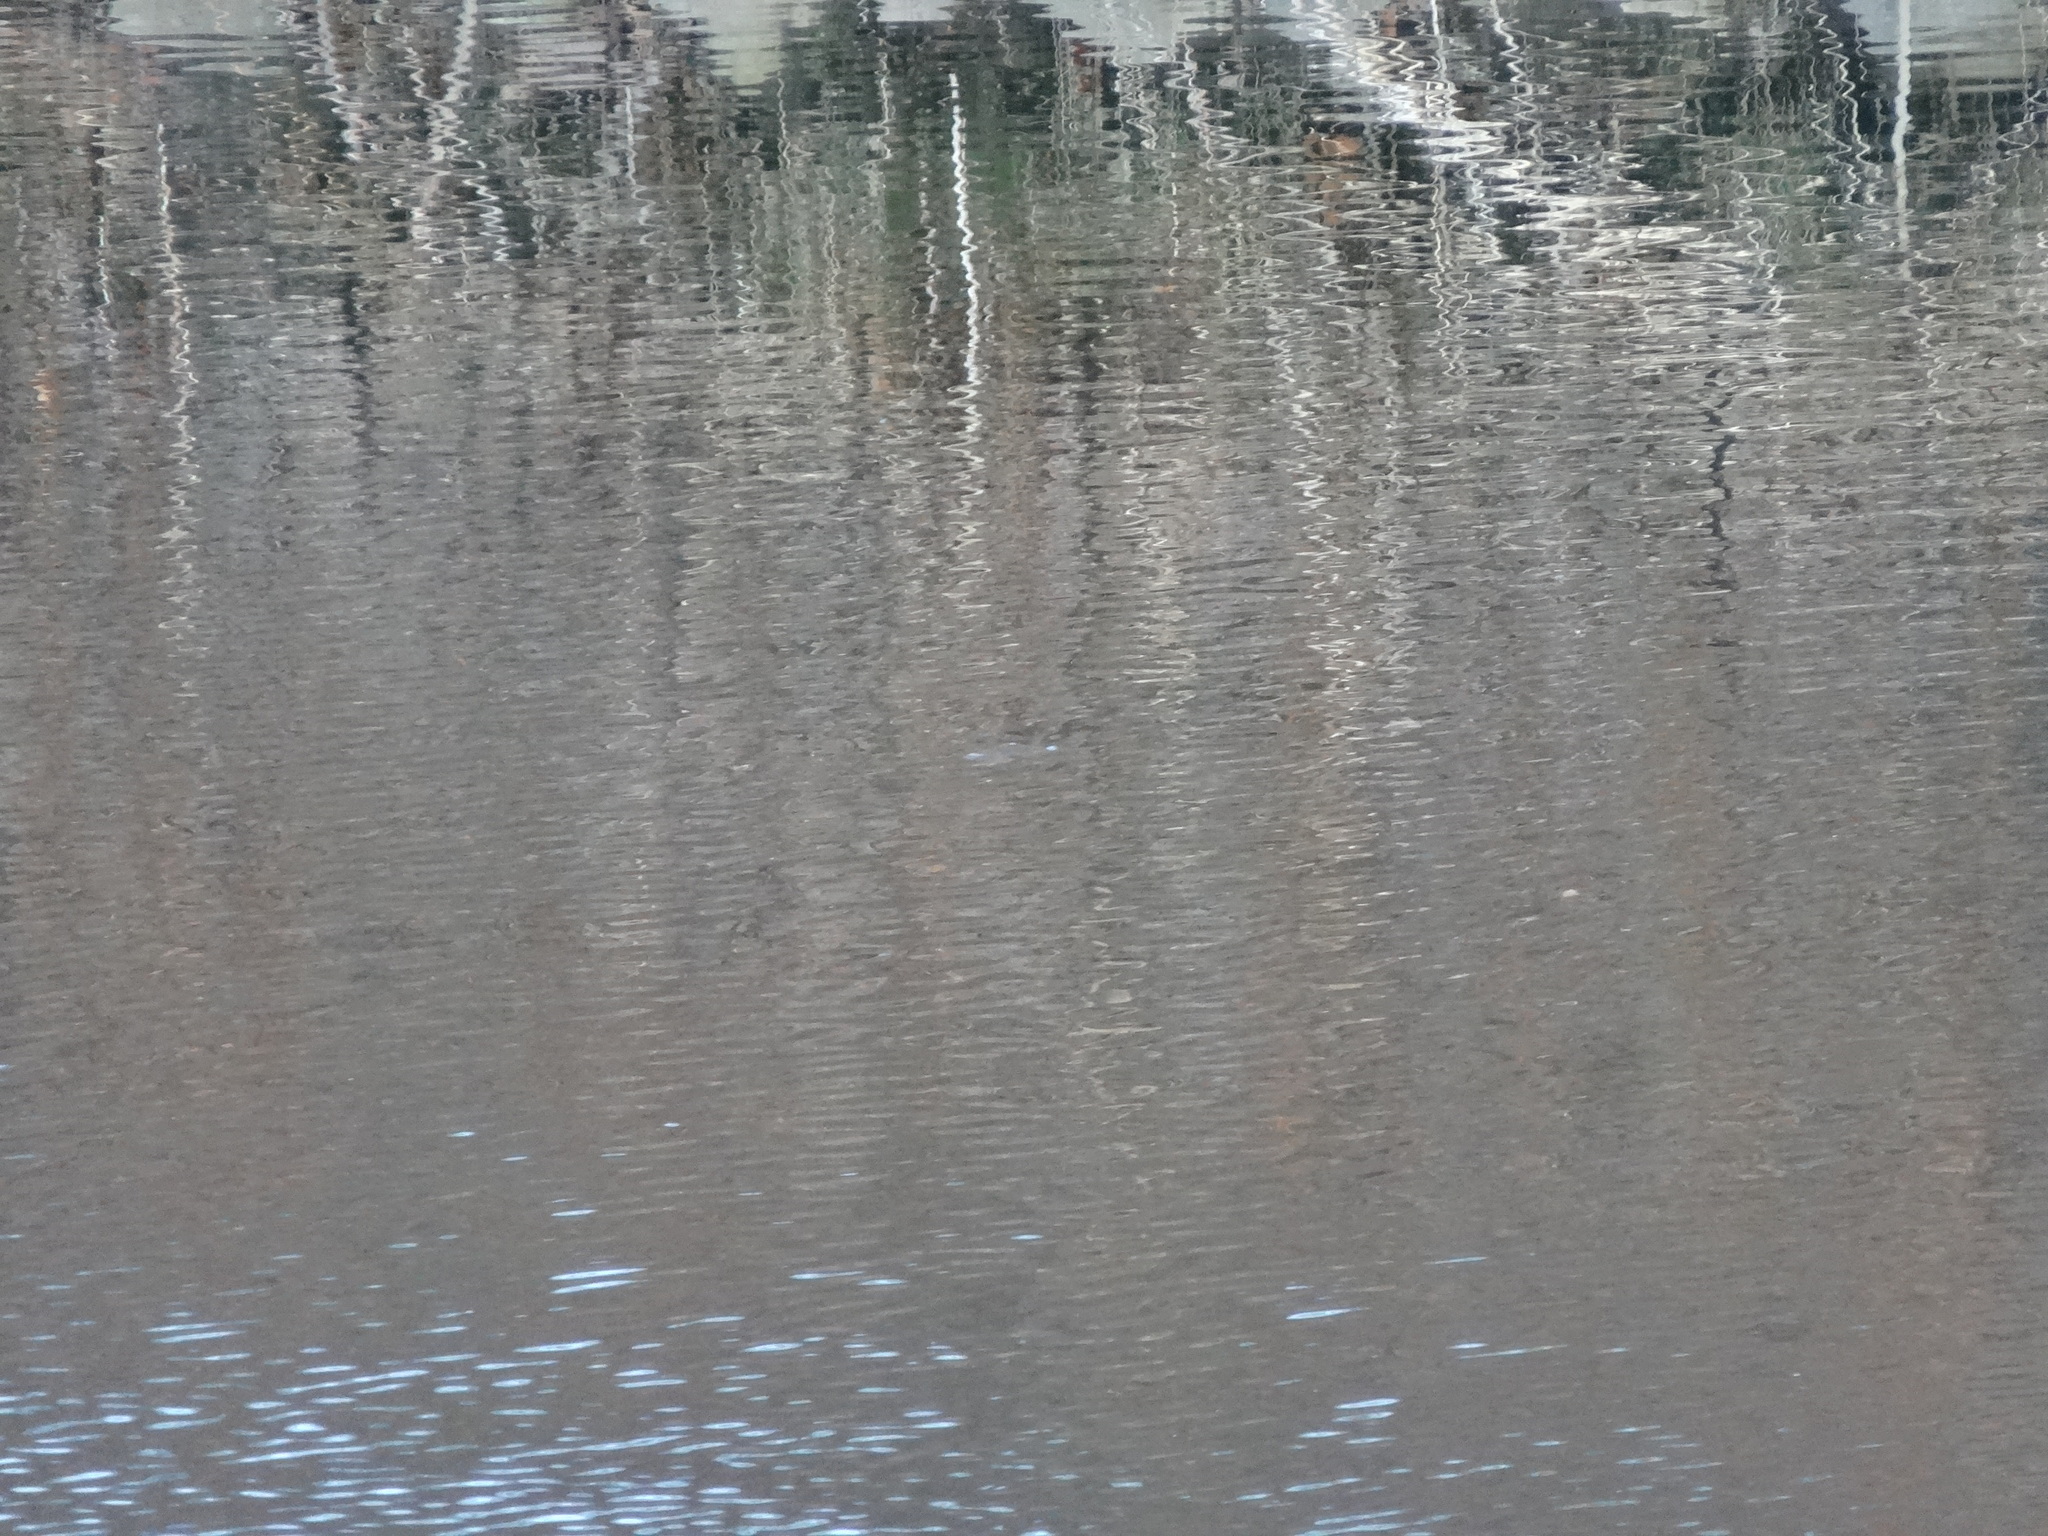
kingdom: Animalia
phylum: Chordata
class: Aves
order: Podicipediformes
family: Podicipedidae
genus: Tachybaptus
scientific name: Tachybaptus ruficollis
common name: Little grebe
